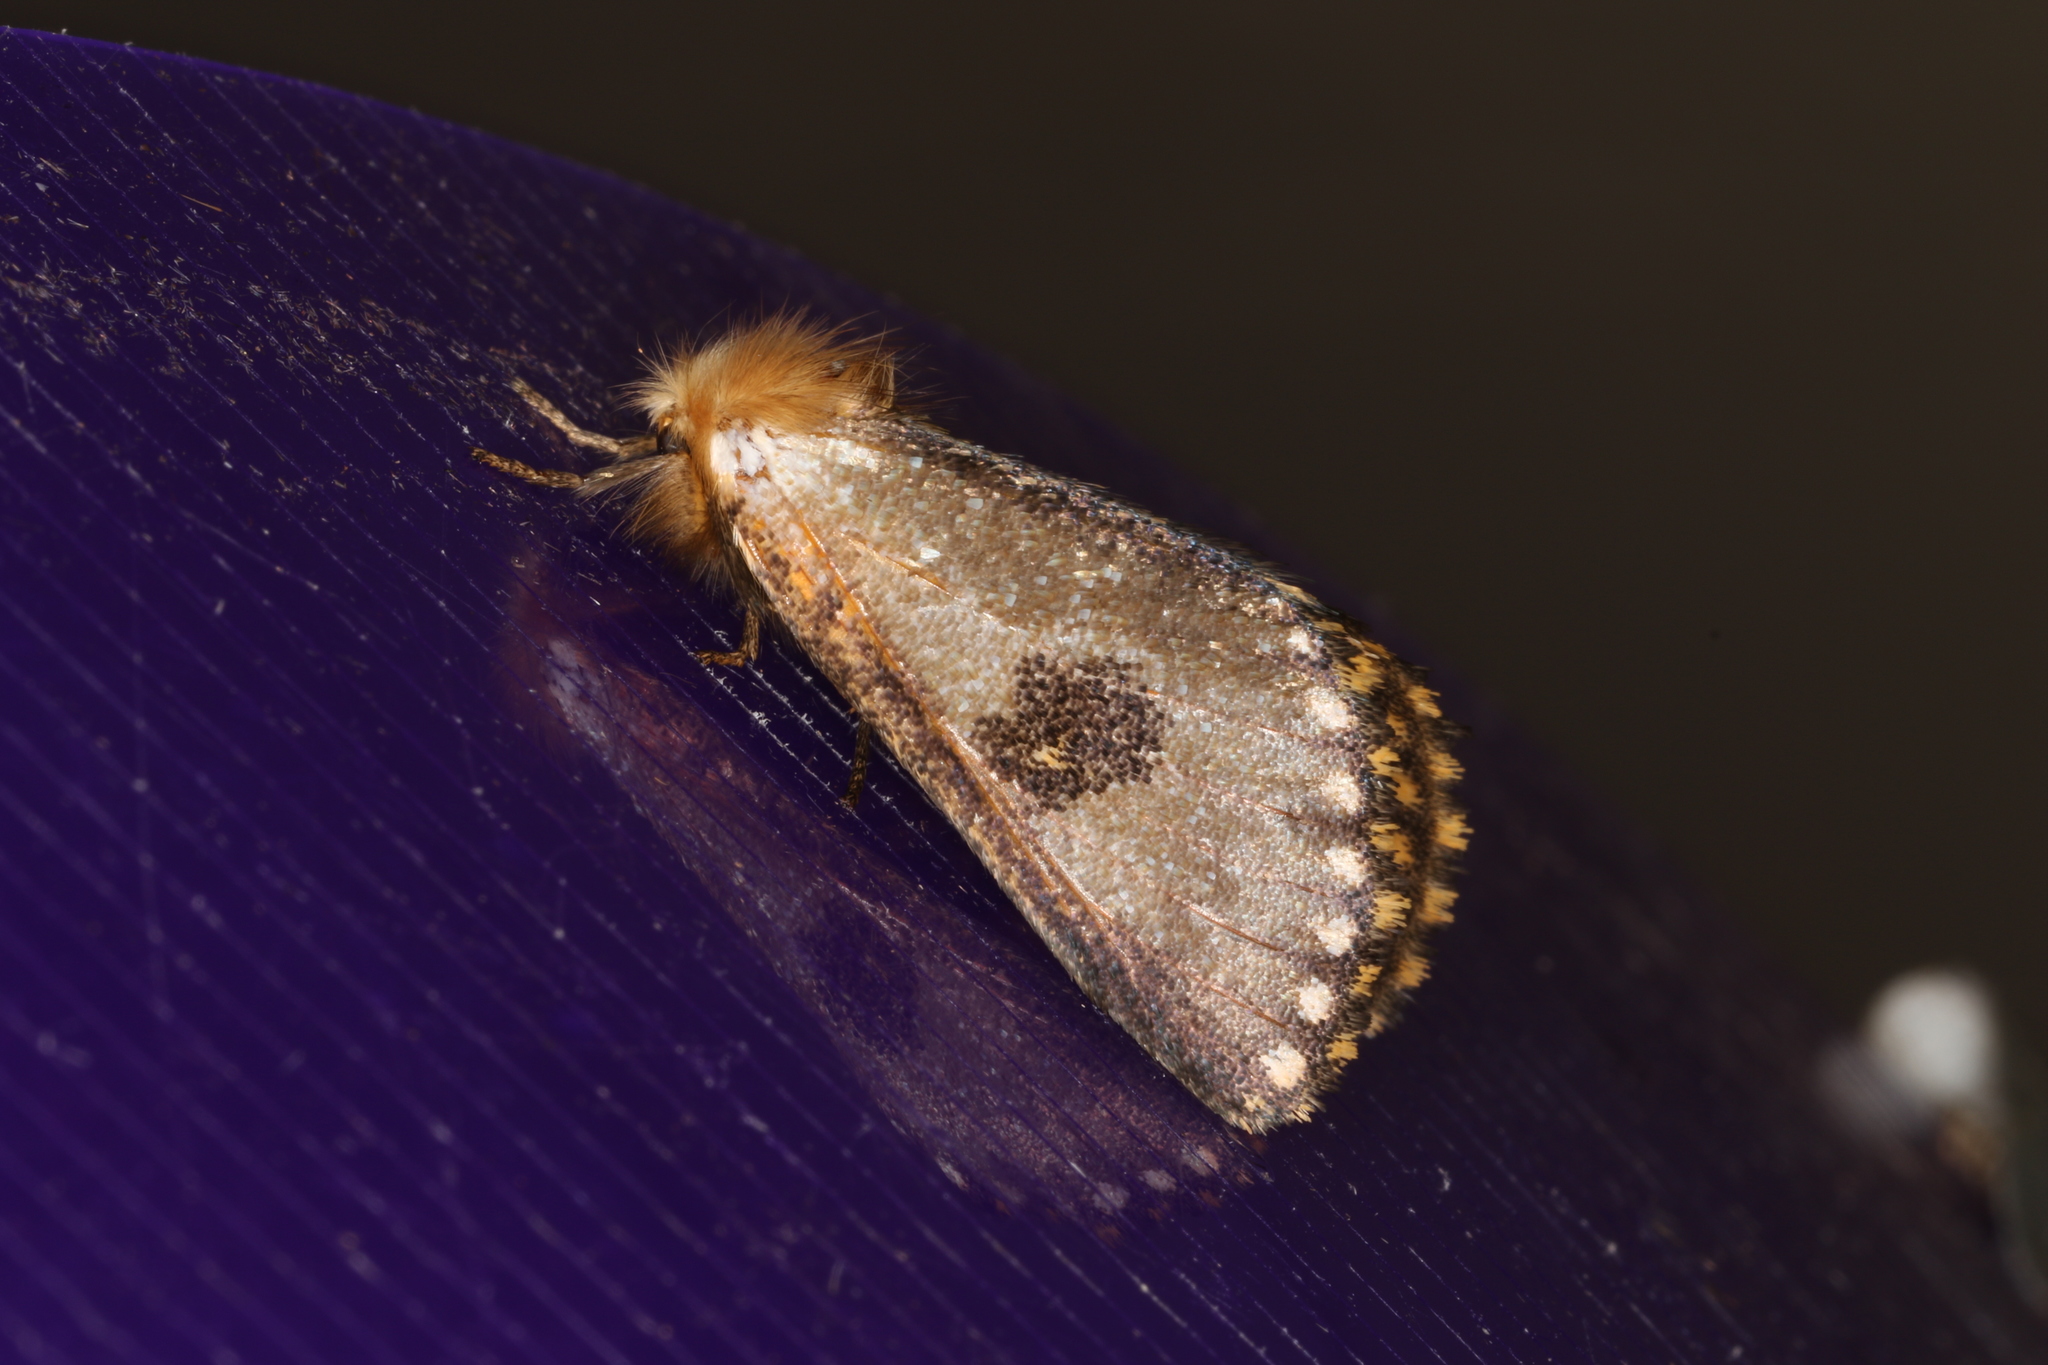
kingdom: Animalia
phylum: Arthropoda
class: Insecta
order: Lepidoptera
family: Notodontidae
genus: Epicoma
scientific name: Epicoma contristis
